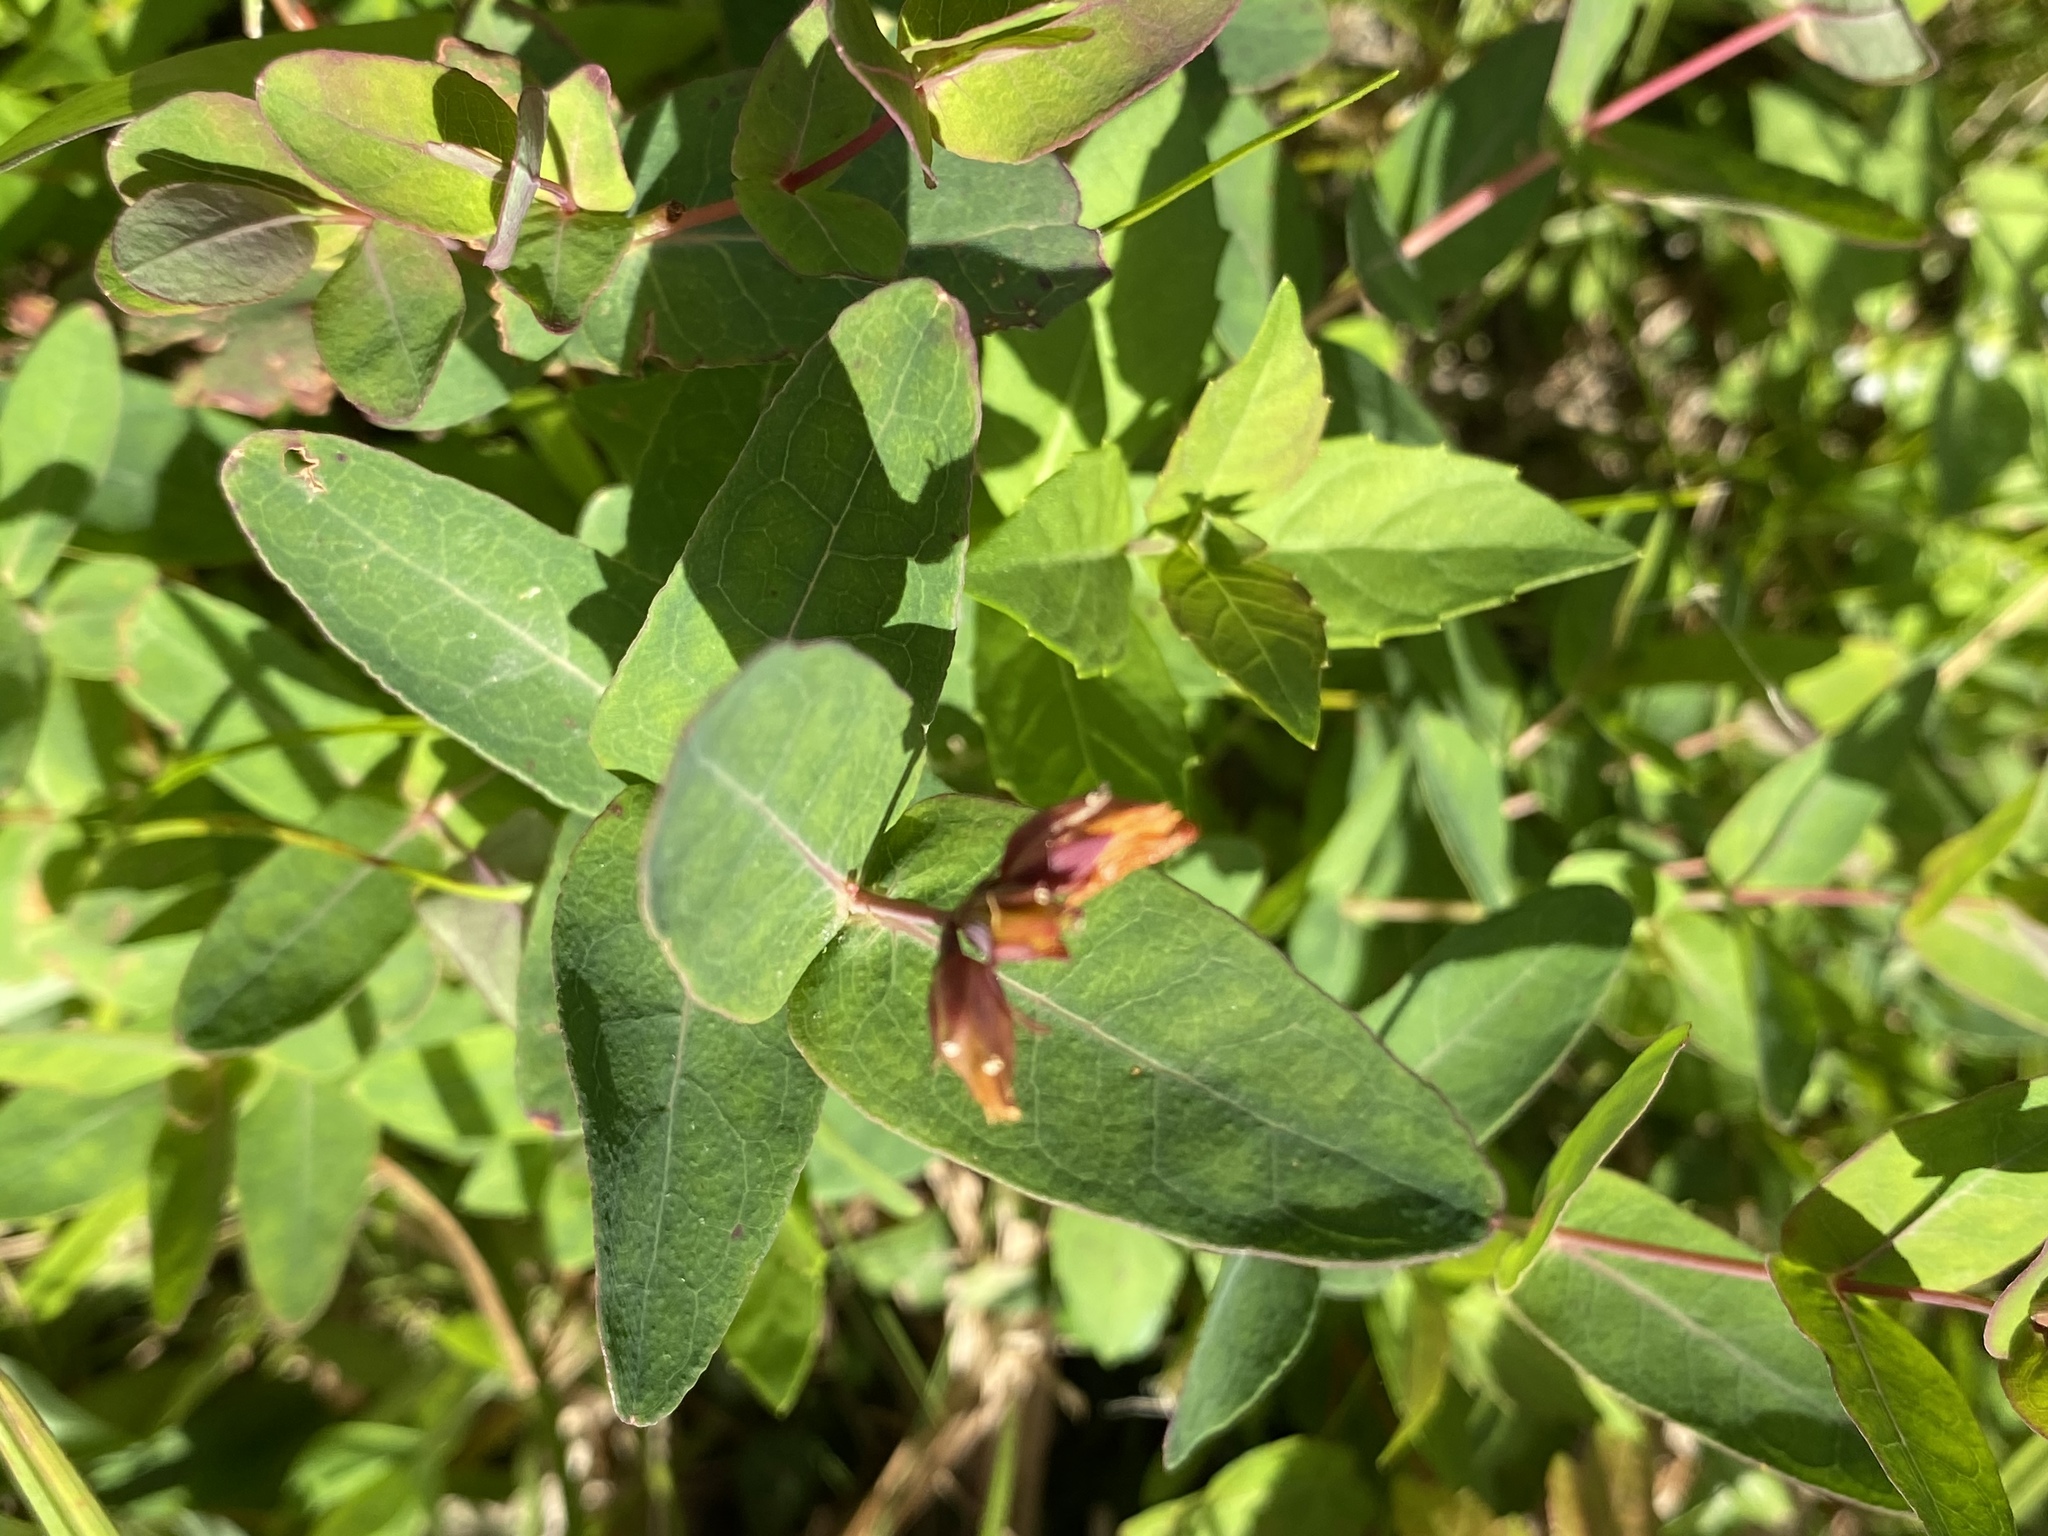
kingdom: Plantae
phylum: Tracheophyta
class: Magnoliopsida
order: Malpighiales
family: Hypericaceae
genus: Triadenum
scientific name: Triadenum virginicum
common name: Marsh st. john's-wort
